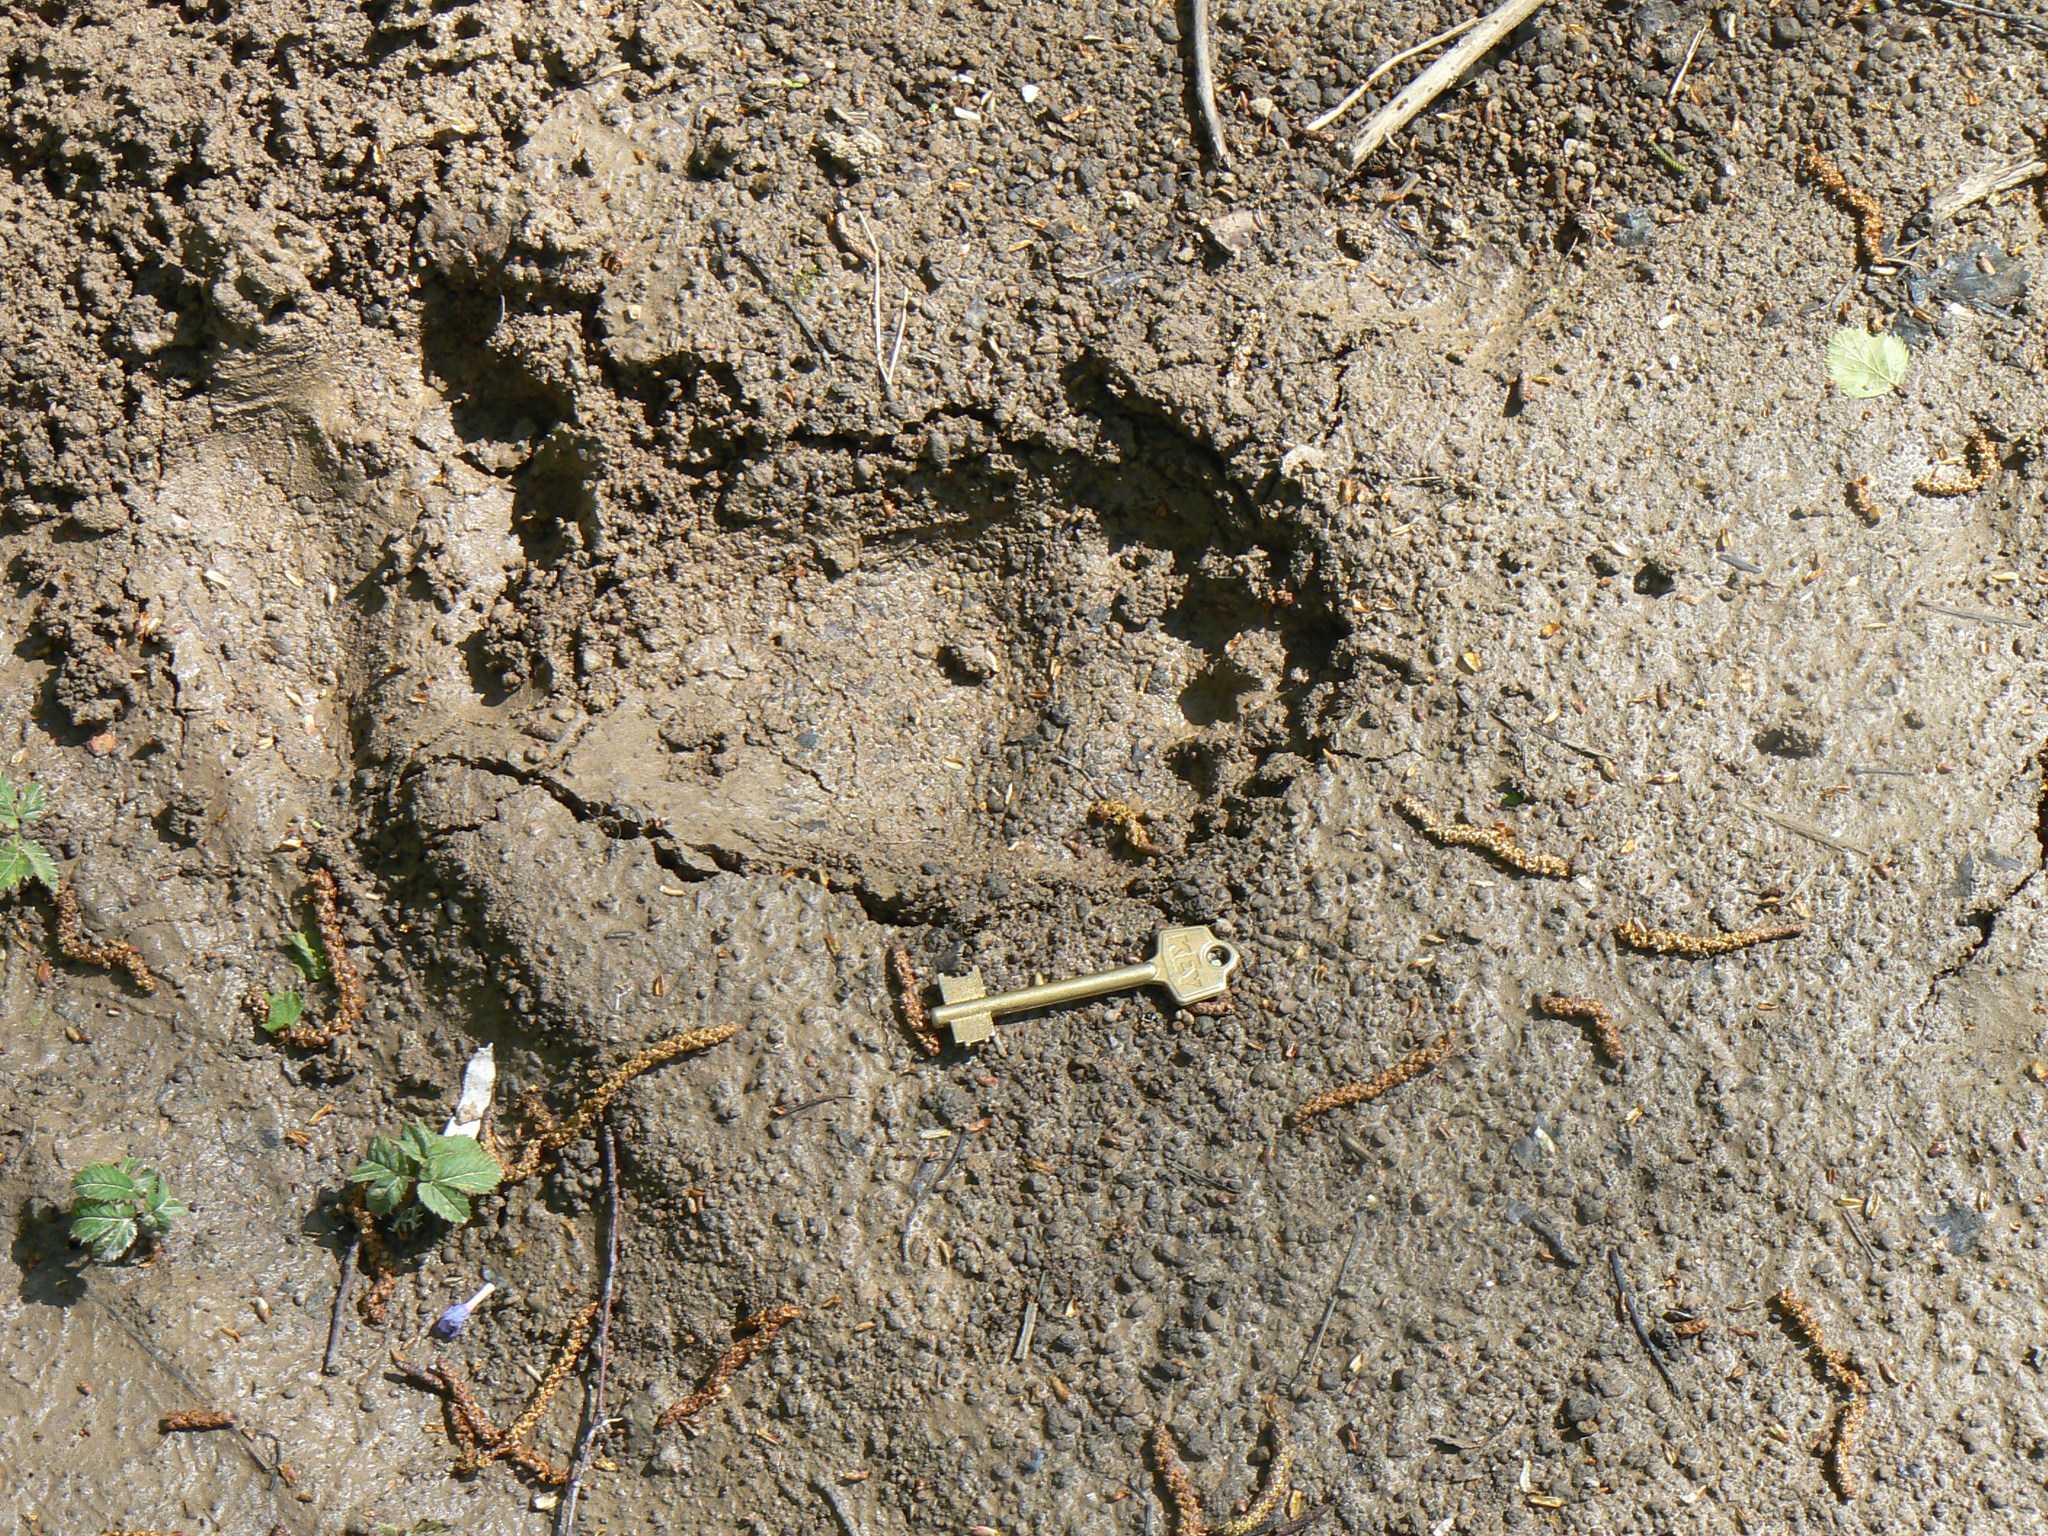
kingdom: Animalia
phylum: Chordata
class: Mammalia
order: Carnivora
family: Ursidae
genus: Ursus
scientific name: Ursus arctos
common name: Brown bear
